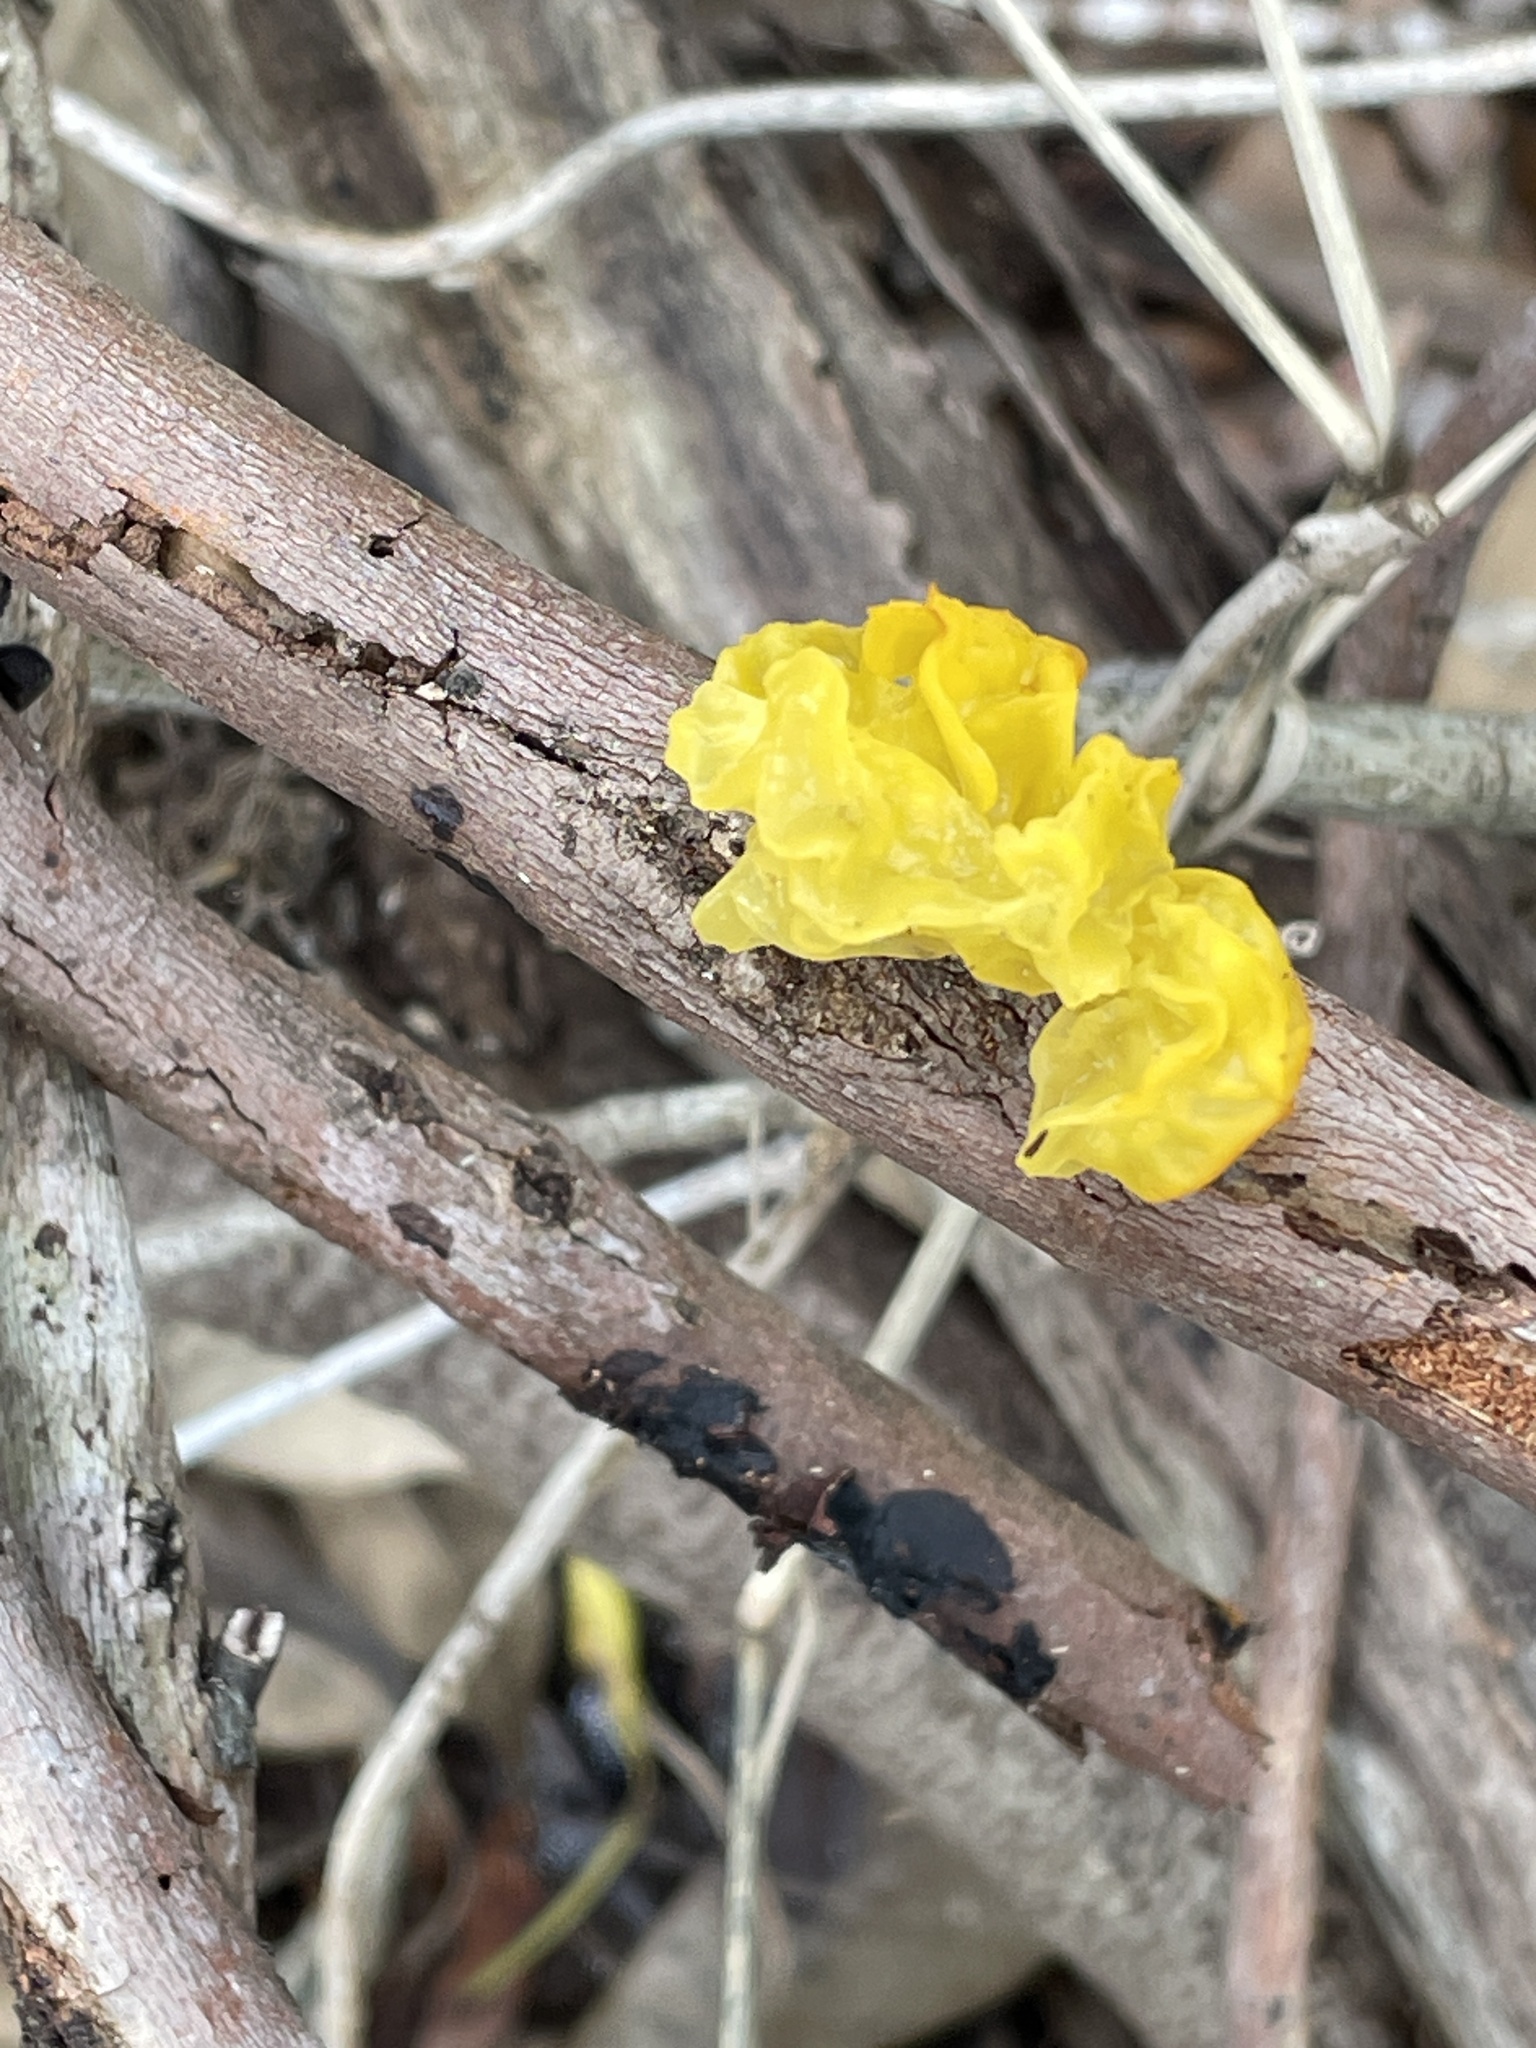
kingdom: Fungi
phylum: Basidiomycota
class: Tremellomycetes
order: Tremellales
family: Tremellaceae
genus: Tremella
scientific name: Tremella mesenterica
